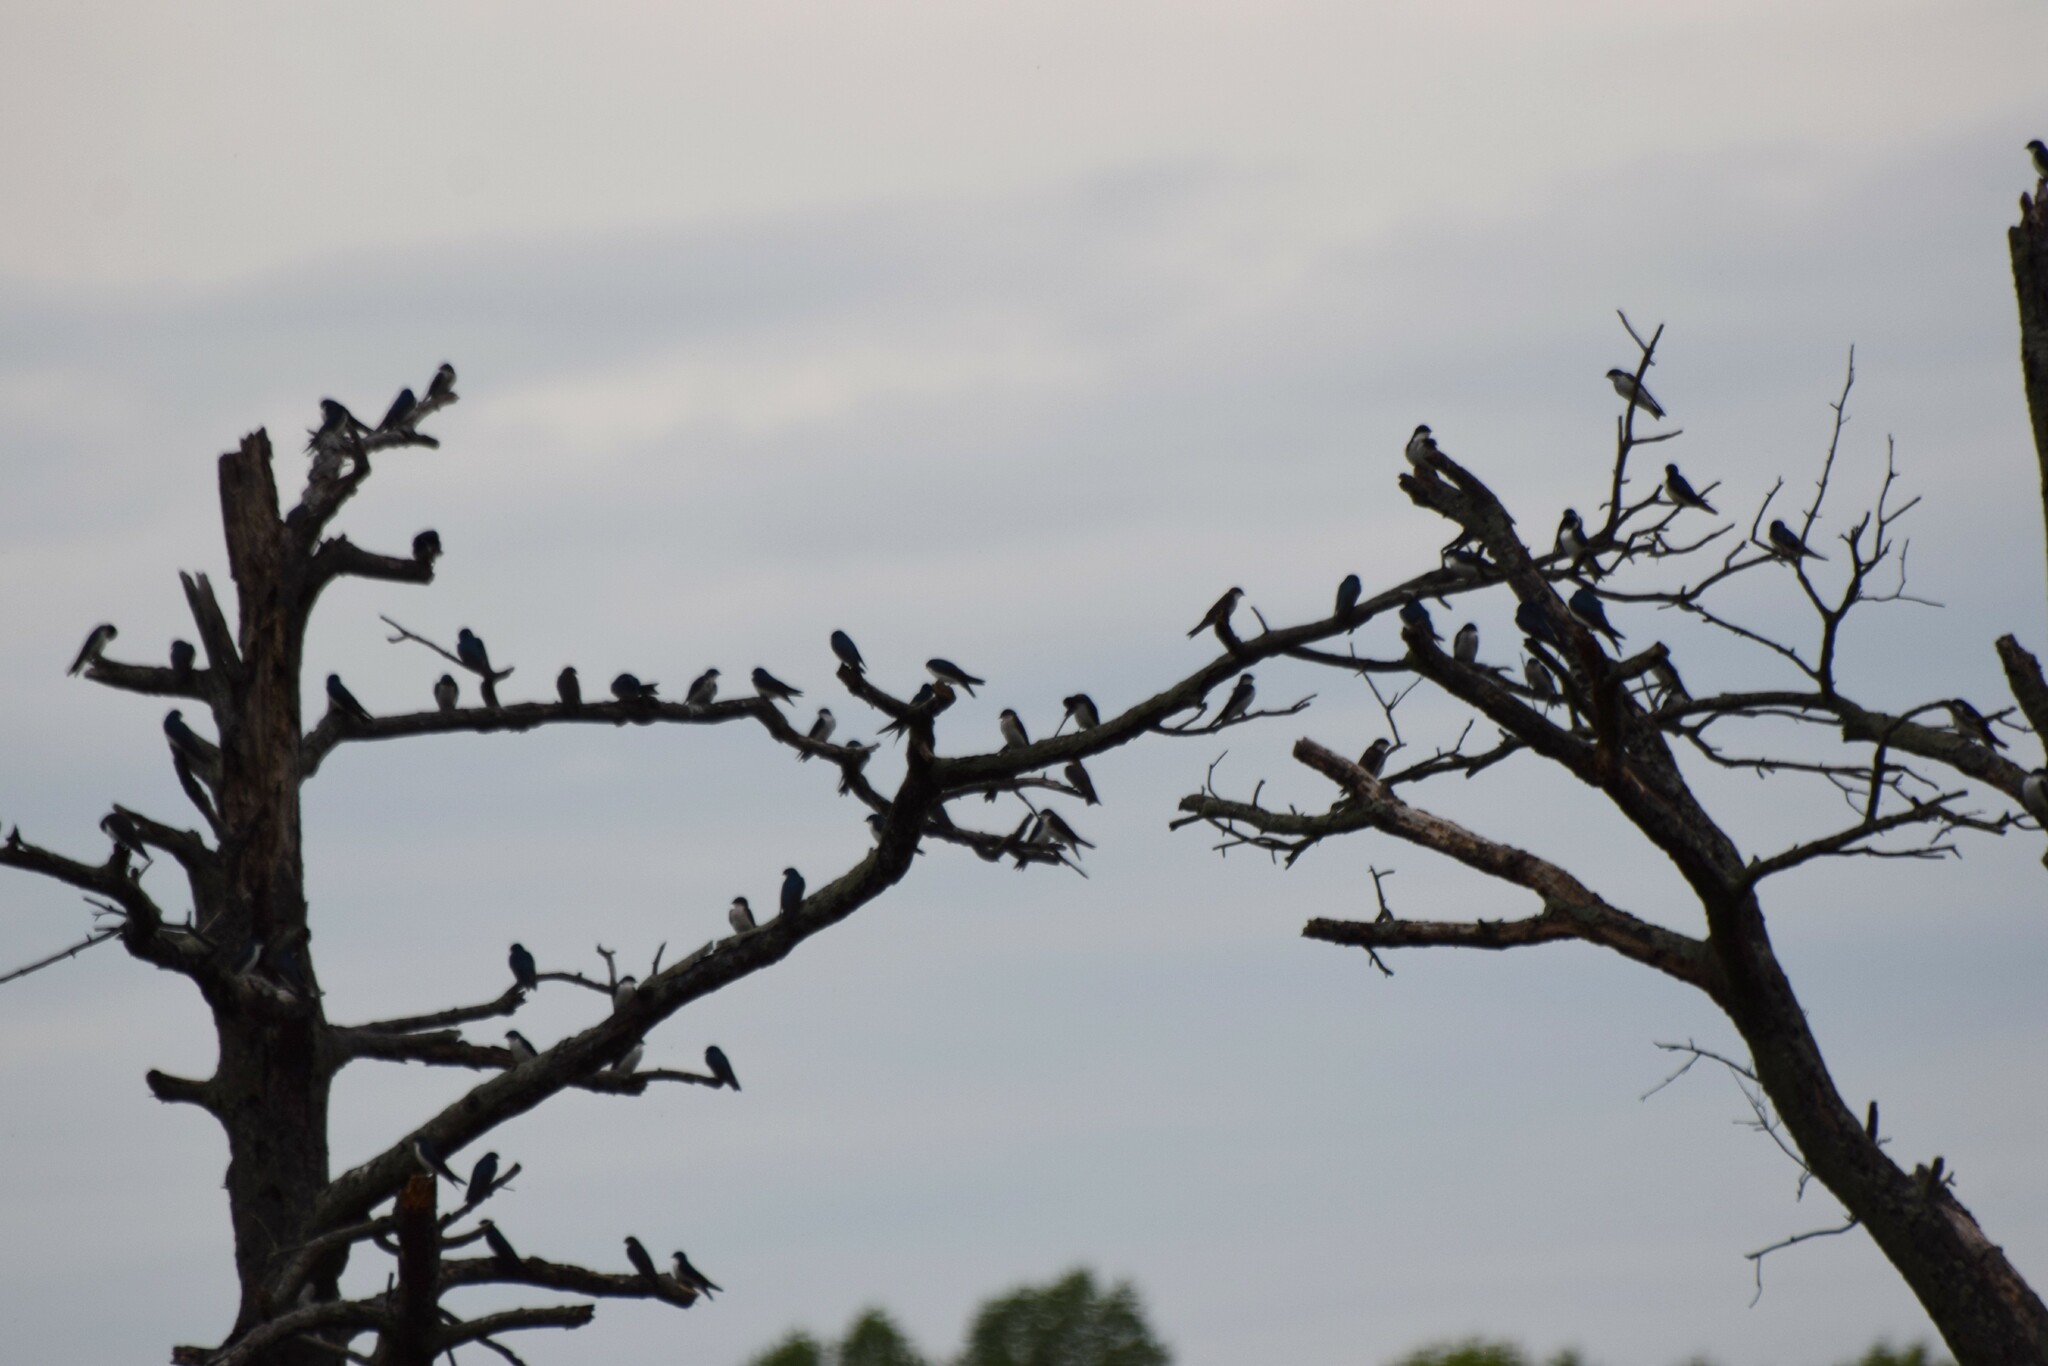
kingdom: Animalia
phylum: Chordata
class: Aves
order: Passeriformes
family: Hirundinidae
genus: Tachycineta
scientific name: Tachycineta bicolor
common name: Tree swallow
